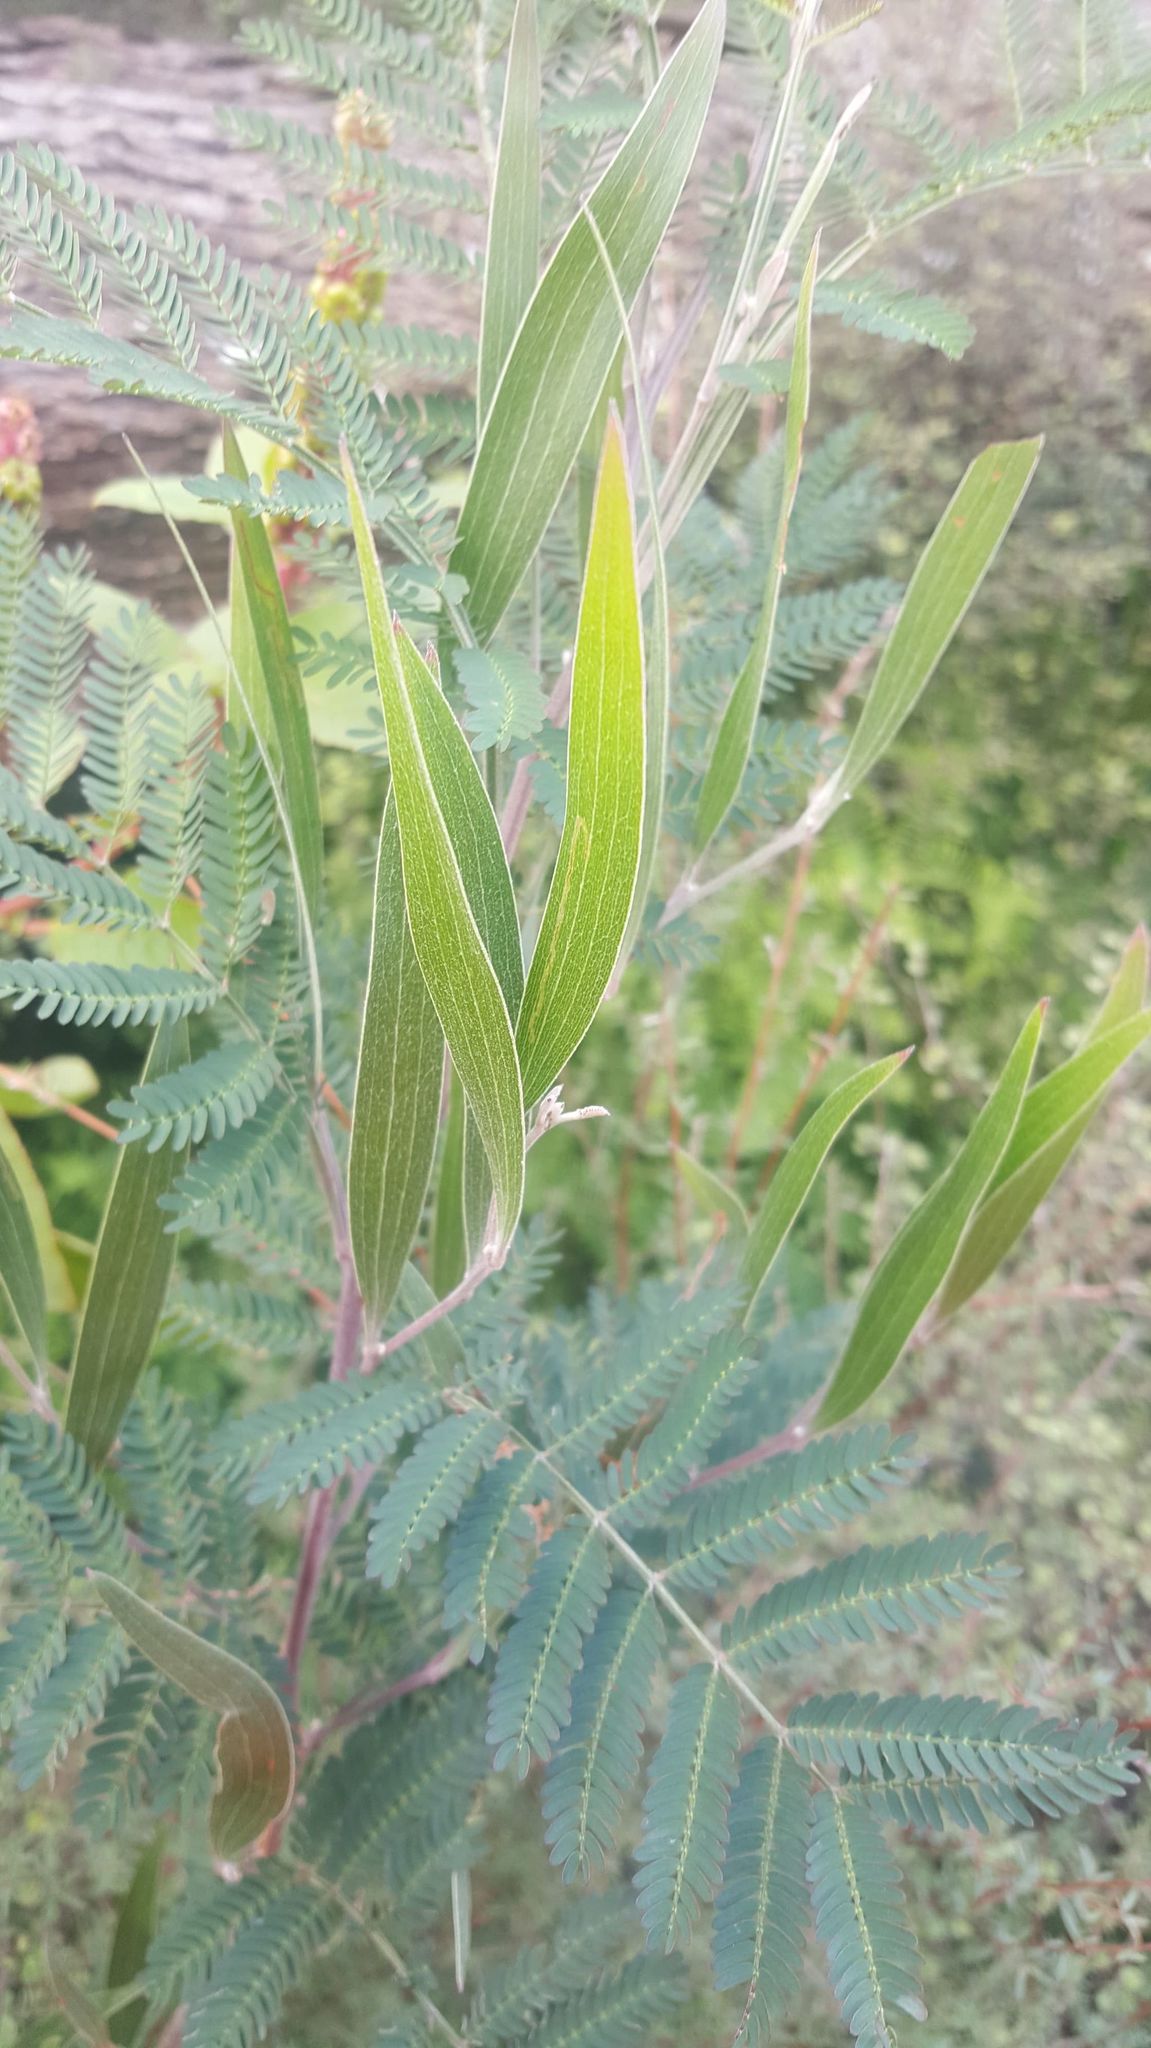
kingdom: Plantae
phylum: Tracheophyta
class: Magnoliopsida
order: Fabales
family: Fabaceae
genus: Acacia
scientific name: Acacia melanoxylon
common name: Blackwood
